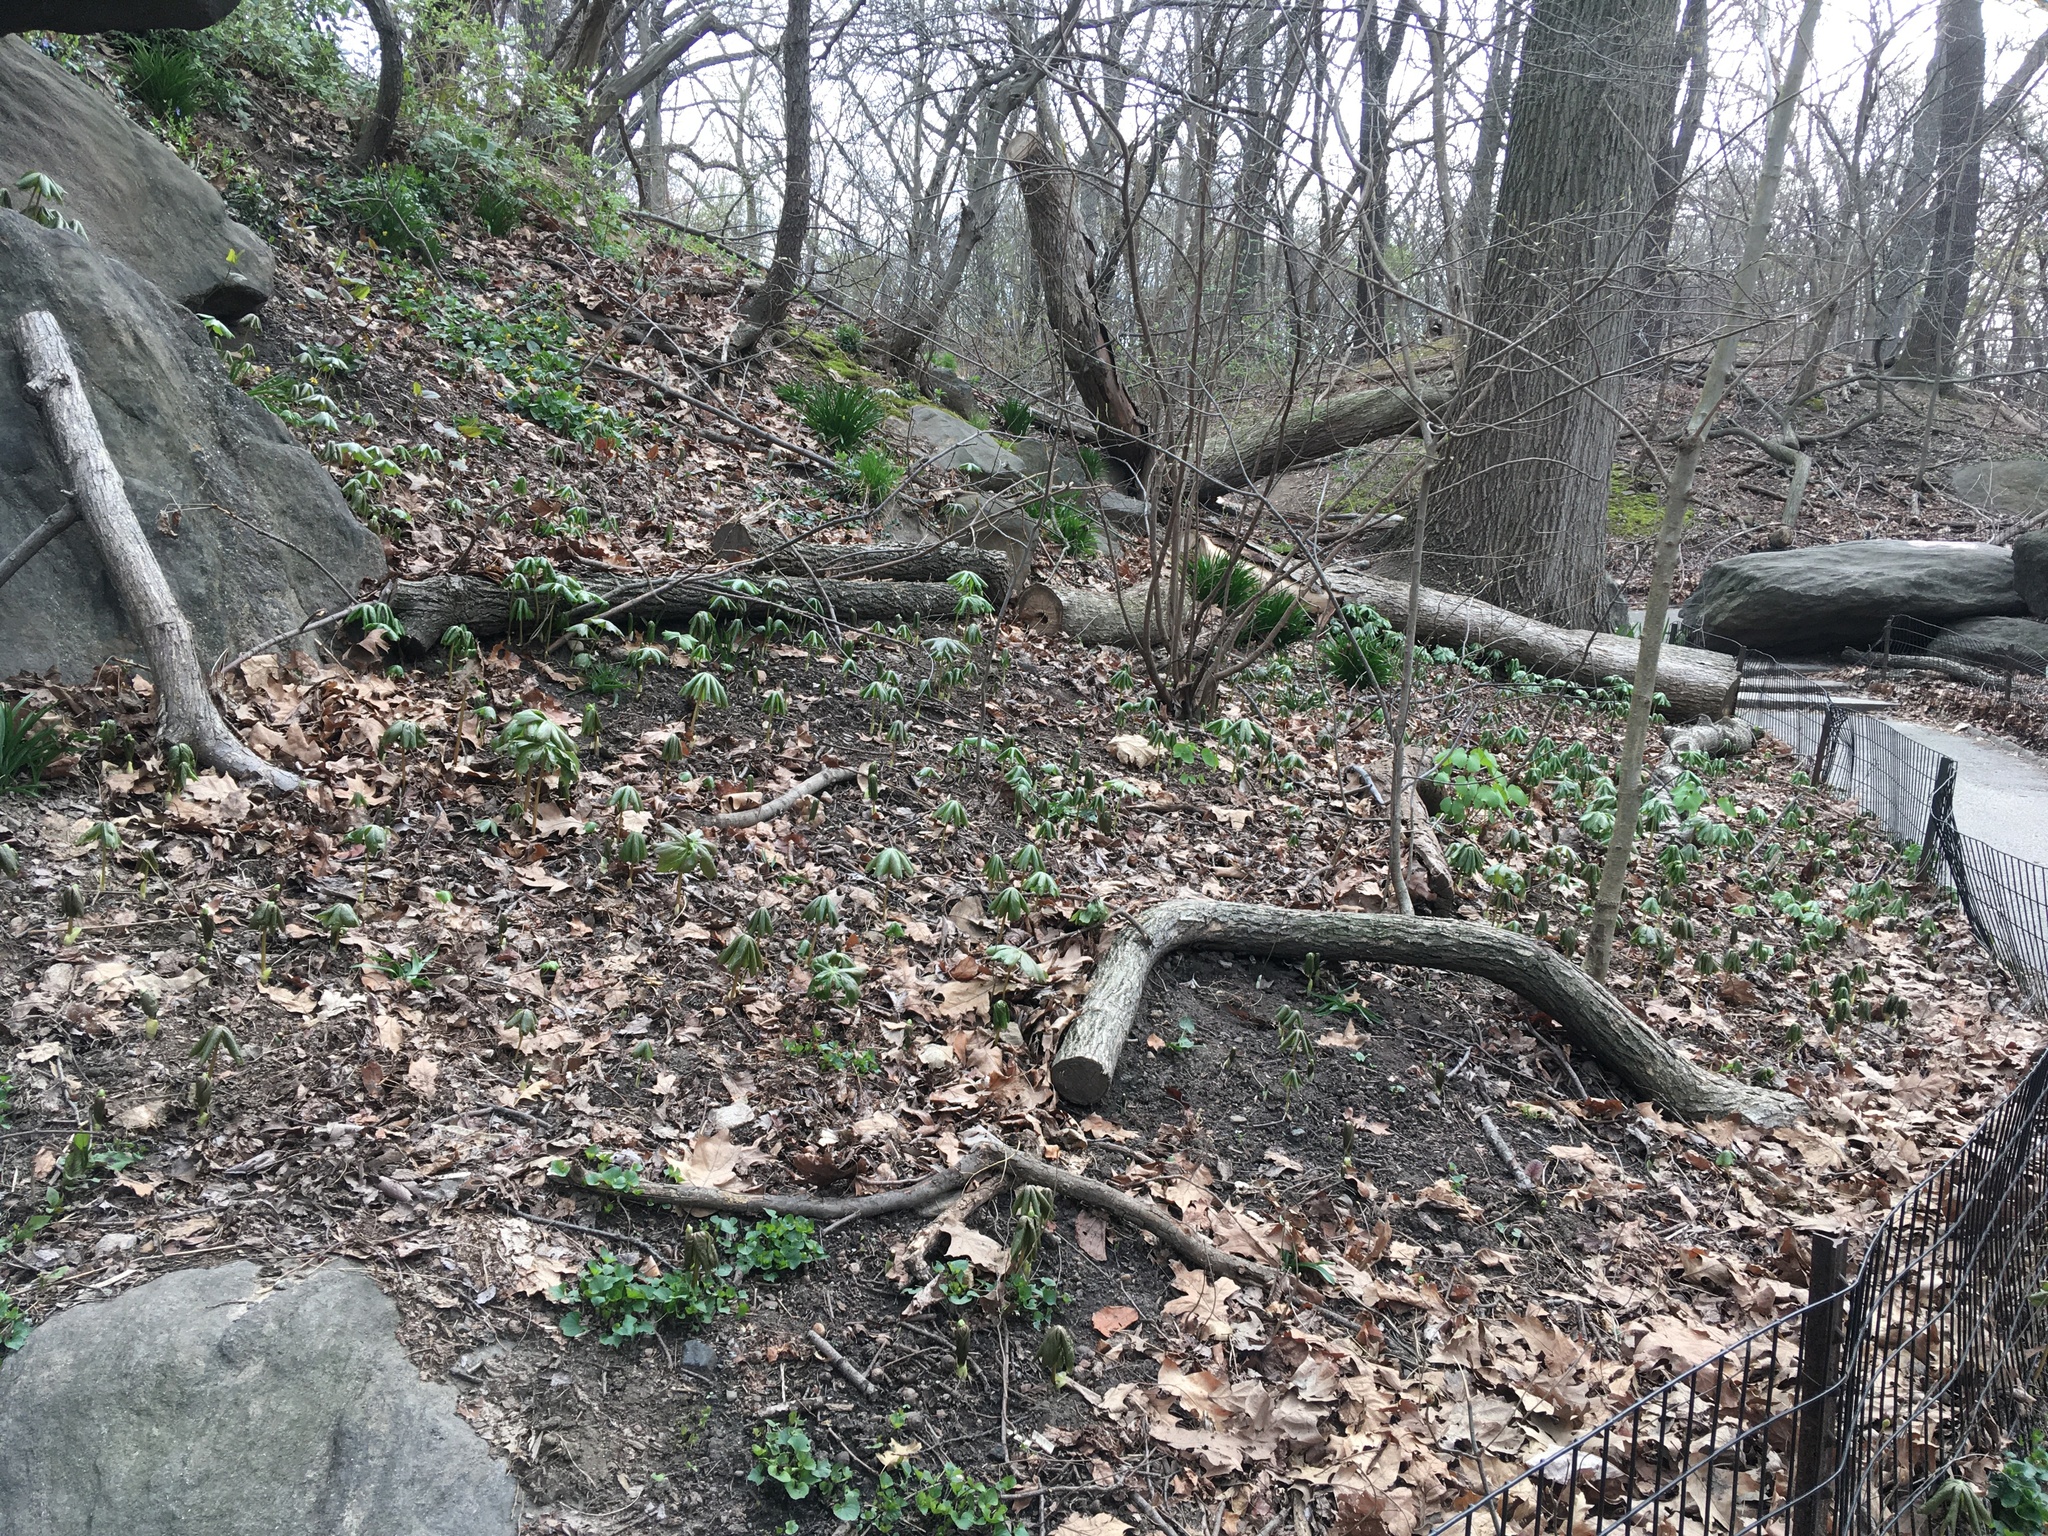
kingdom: Plantae
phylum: Tracheophyta
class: Magnoliopsida
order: Ranunculales
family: Berberidaceae
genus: Podophyllum
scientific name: Podophyllum peltatum
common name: Wild mandrake
